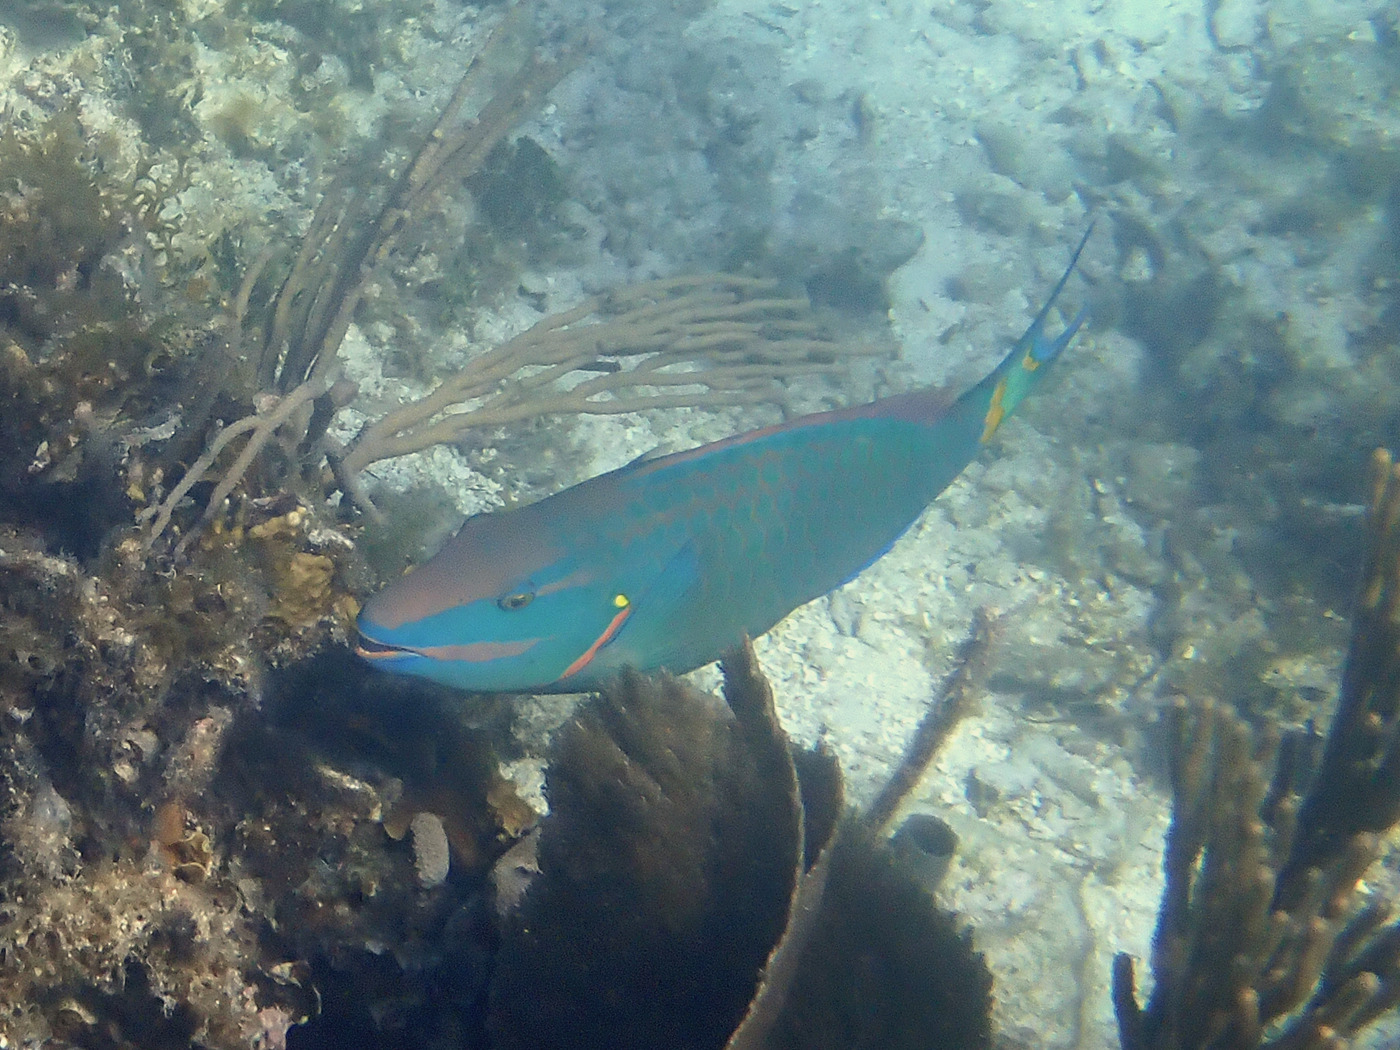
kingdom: Animalia
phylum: Chordata
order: Perciformes
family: Scaridae
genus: Sparisoma
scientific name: Sparisoma viride
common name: Stoplight parrotfish
